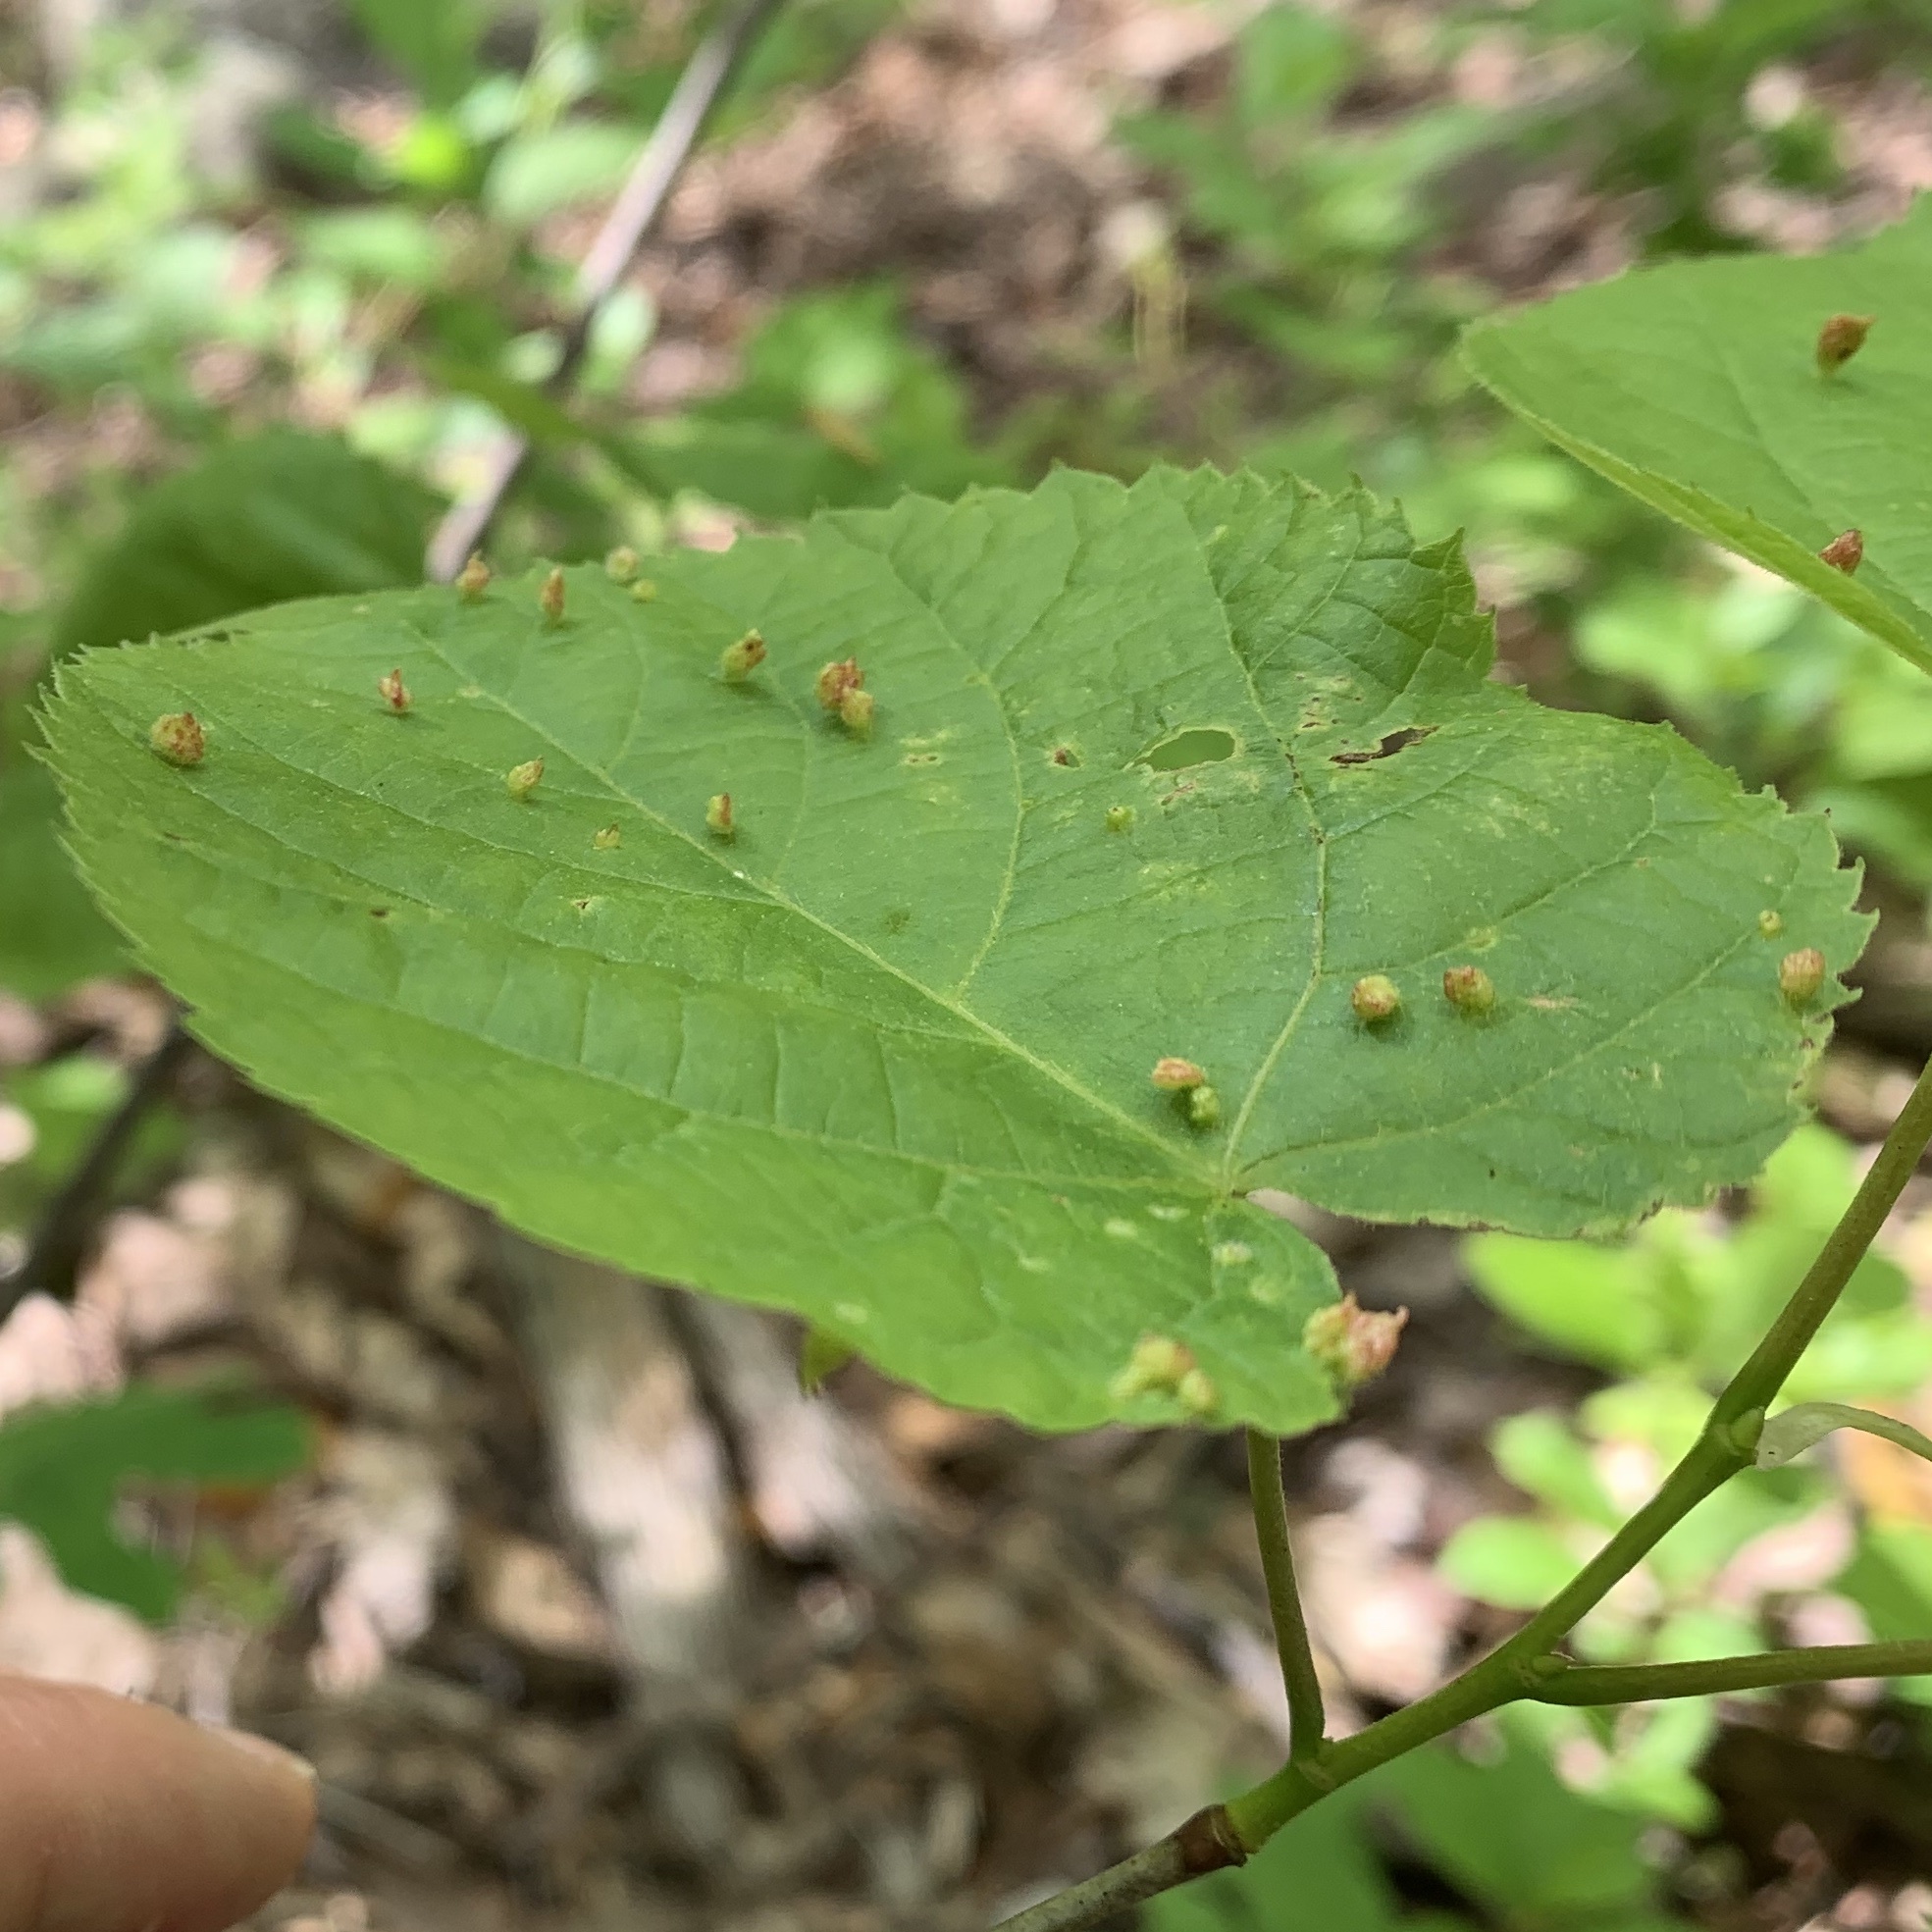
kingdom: Animalia
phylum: Arthropoda
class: Arachnida
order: Trombidiformes
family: Eriophyidae
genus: Eriophyes
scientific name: Eriophyes tiliae
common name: Red nail gall mite
